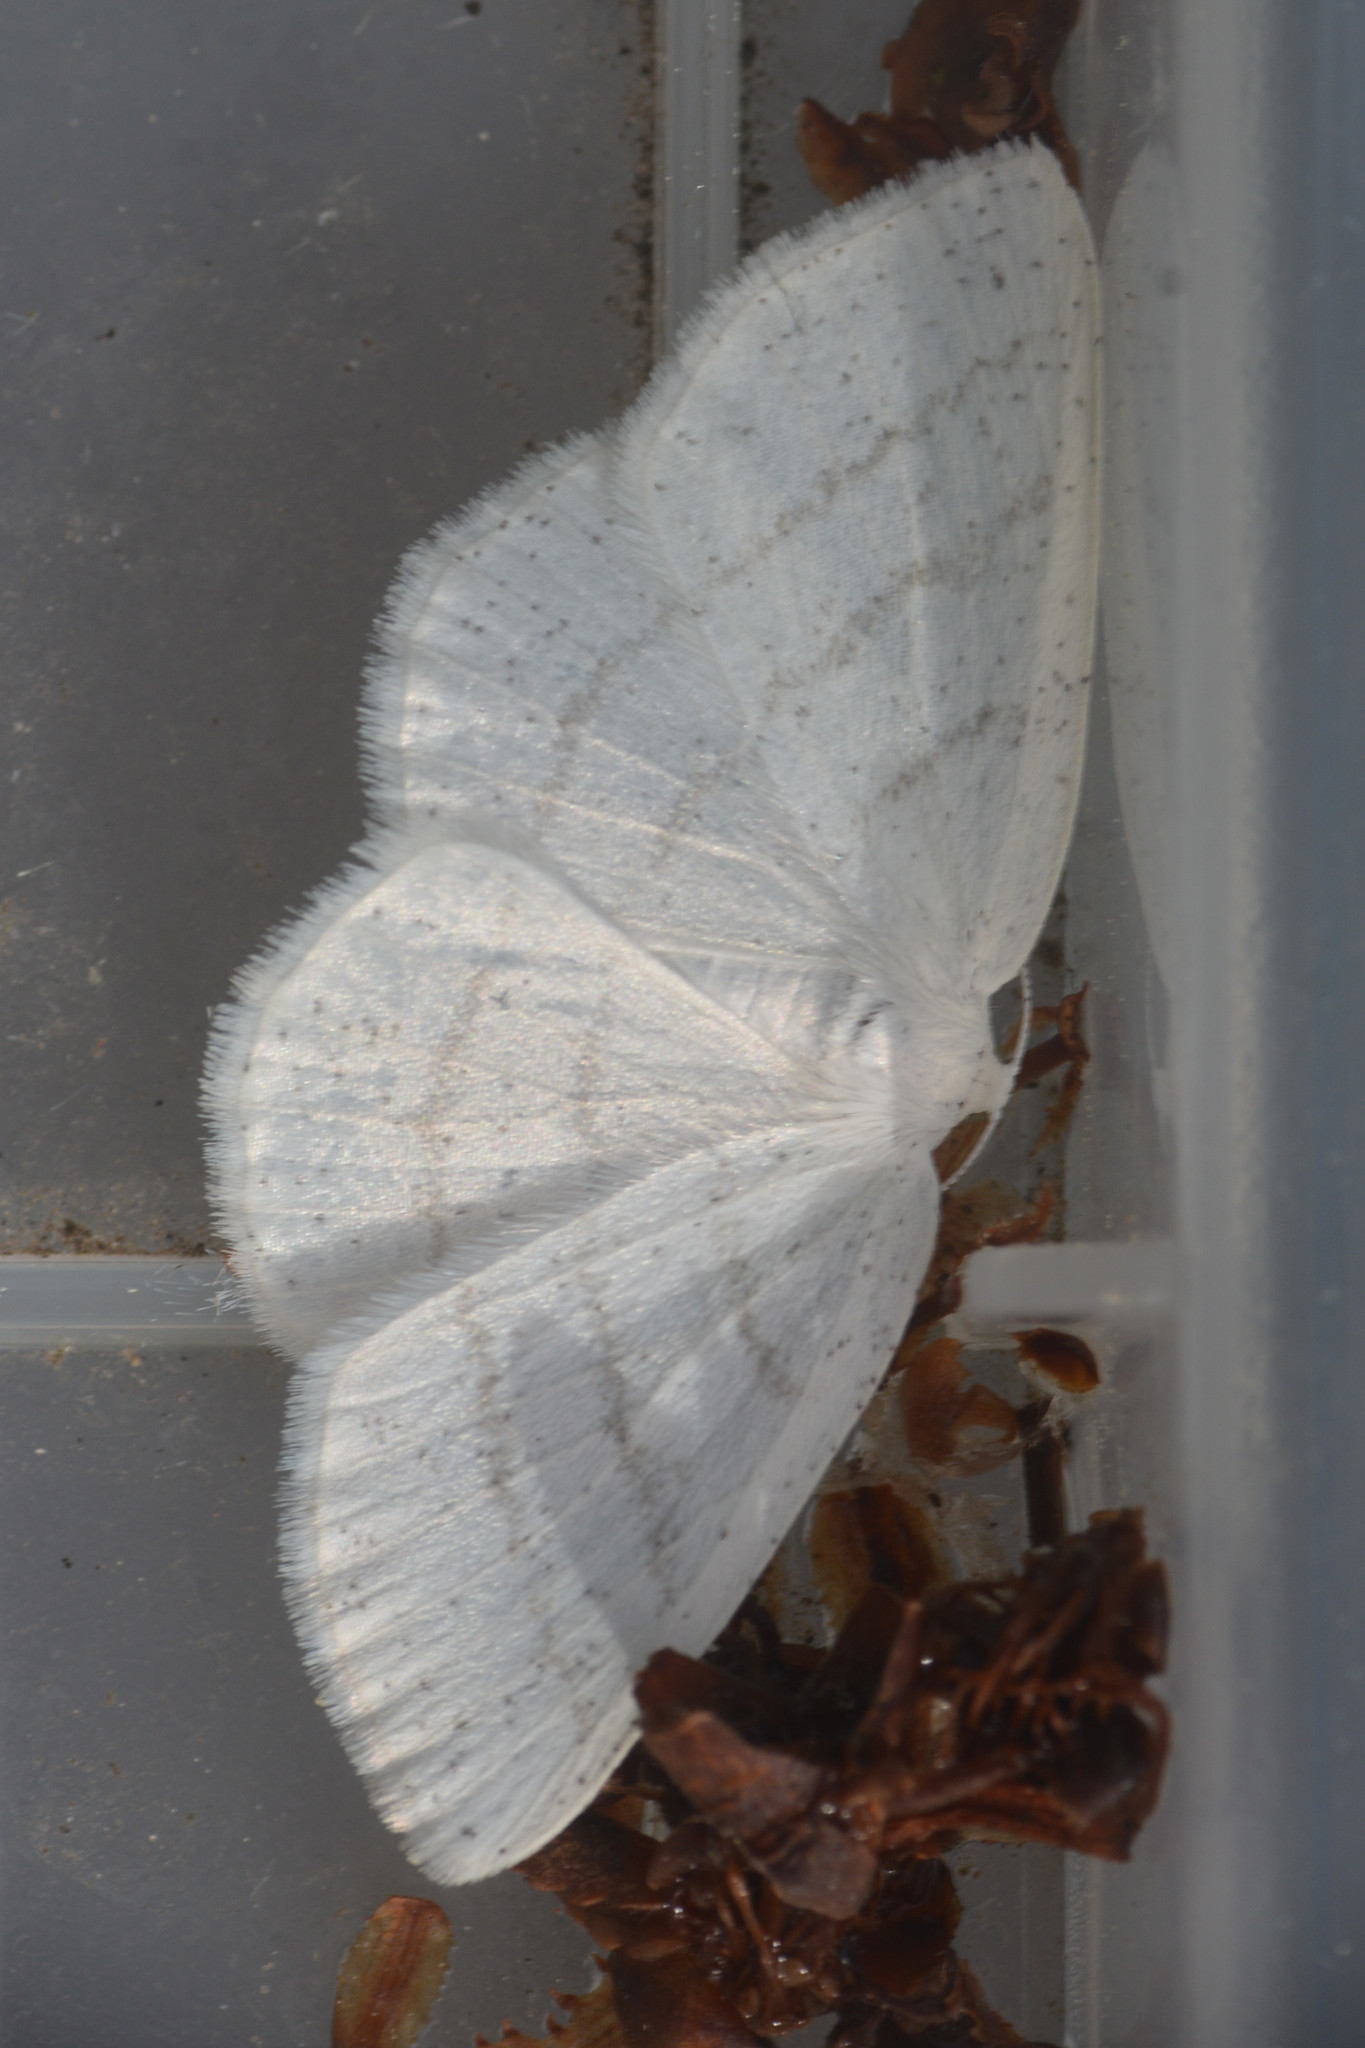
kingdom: Animalia
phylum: Arthropoda
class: Insecta
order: Lepidoptera
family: Geometridae
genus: Cabera
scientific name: Cabera pusaria
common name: Common white wave
